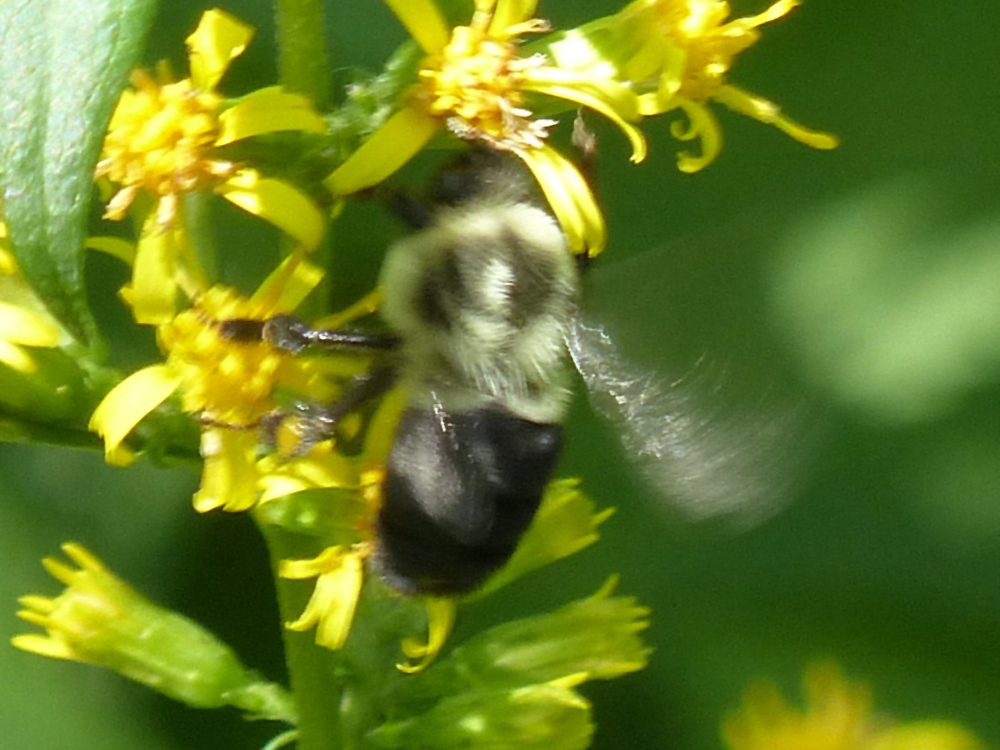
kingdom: Animalia
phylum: Arthropoda
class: Insecta
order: Hymenoptera
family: Apidae
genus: Bombus
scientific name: Bombus impatiens
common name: Common eastern bumble bee
